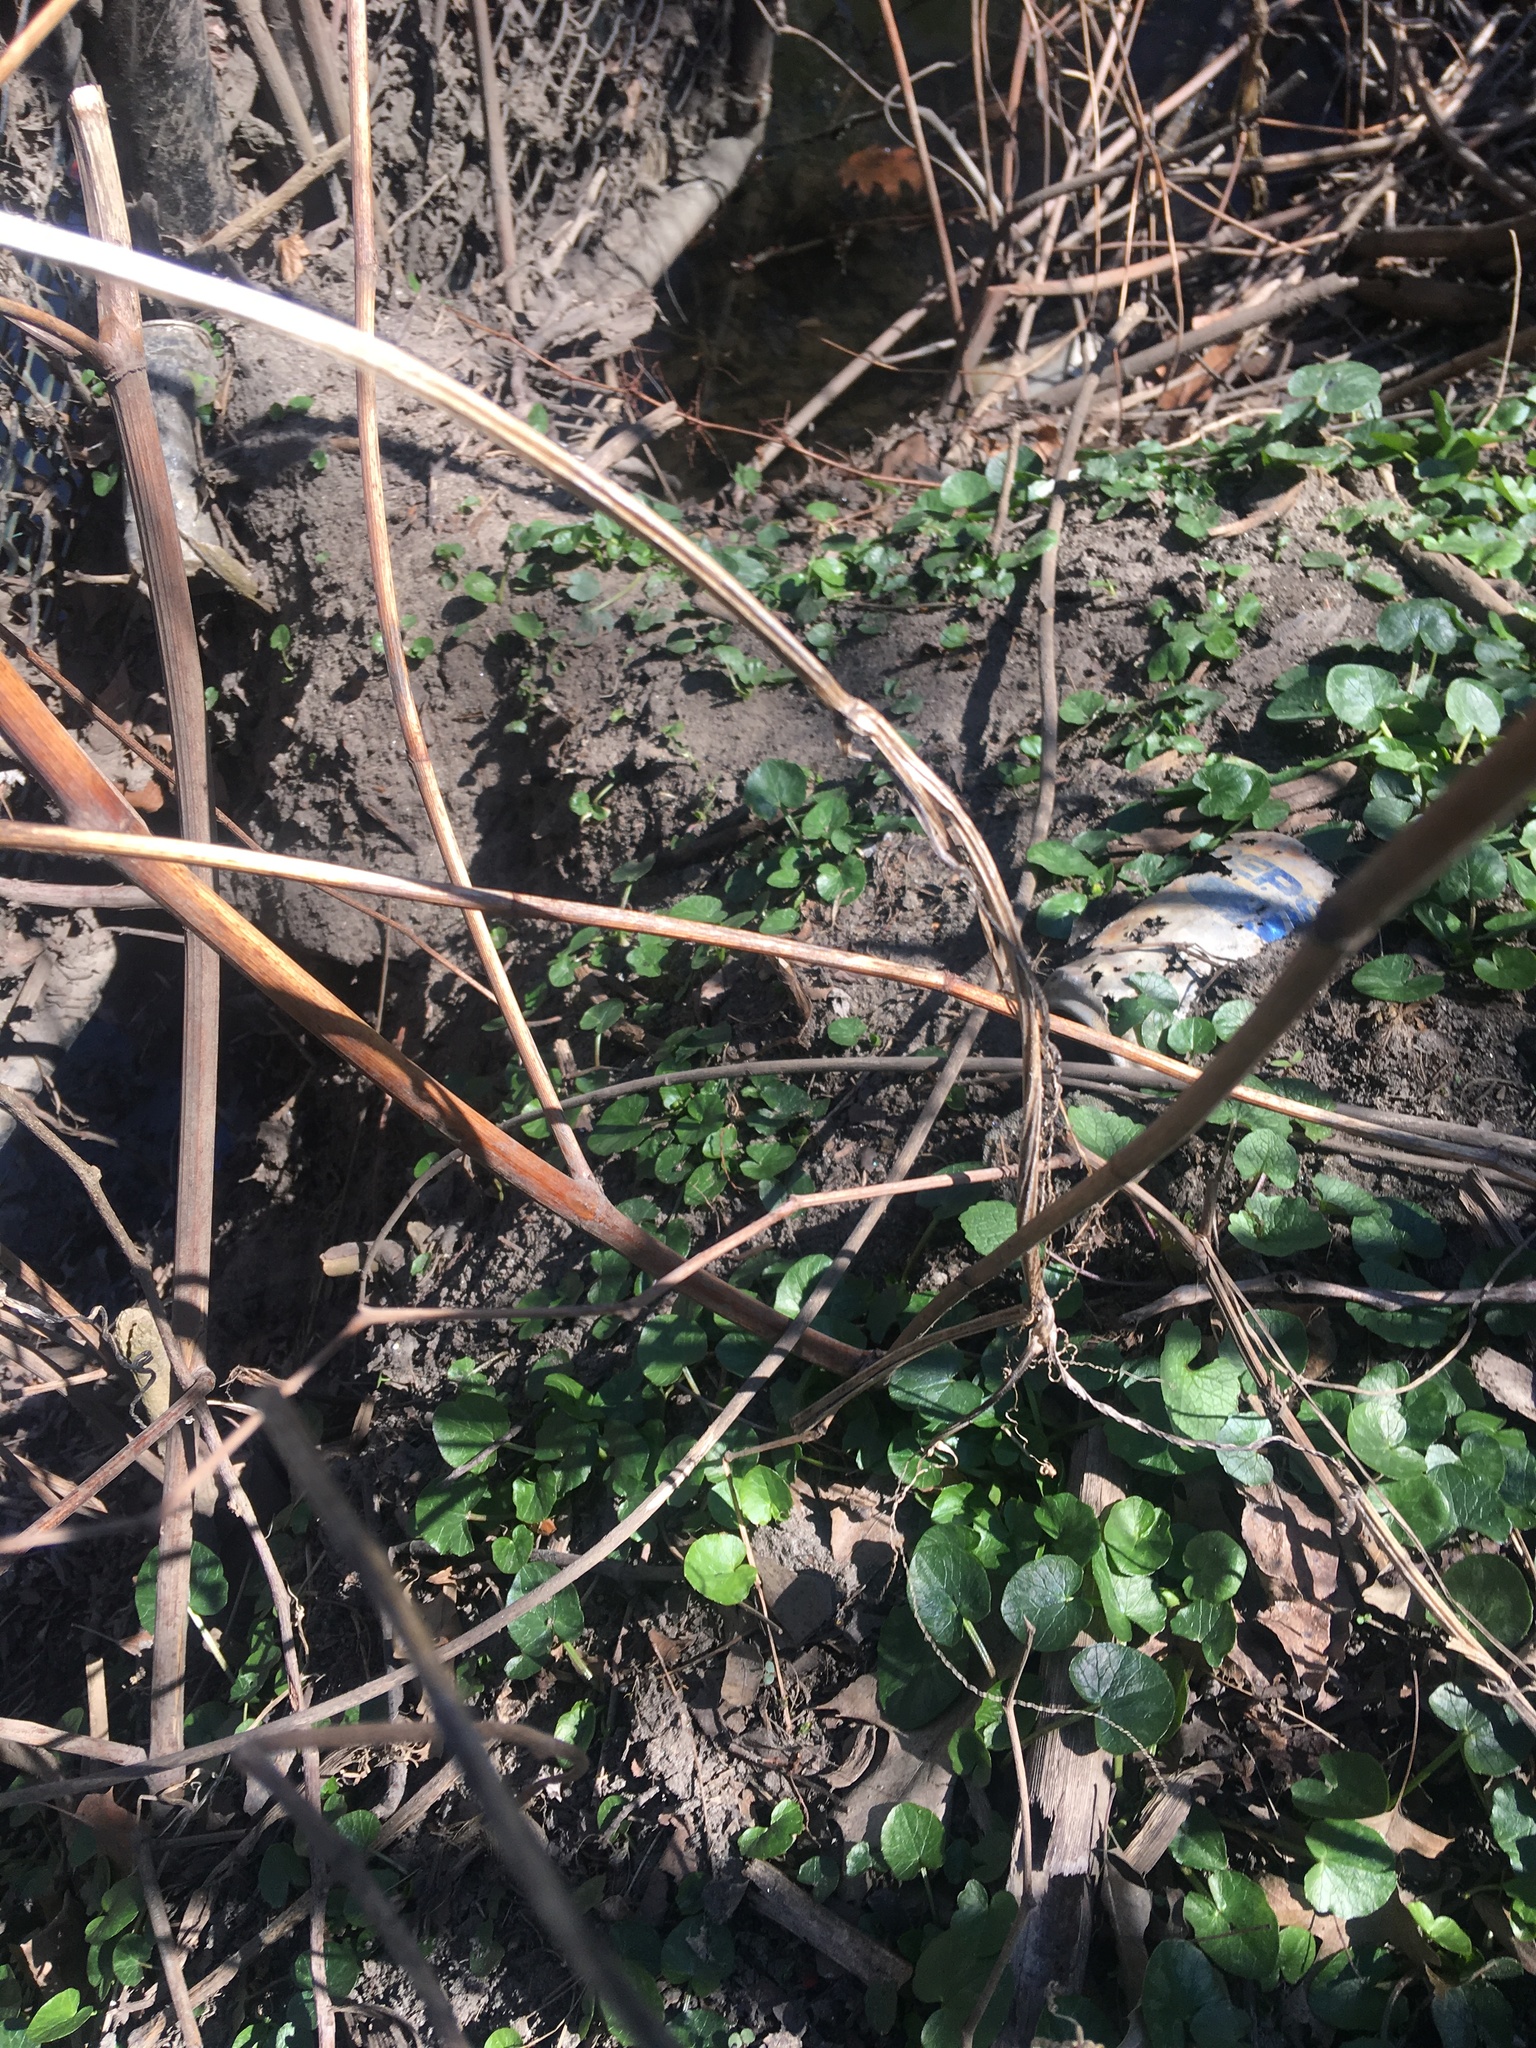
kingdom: Plantae
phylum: Tracheophyta
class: Magnoliopsida
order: Ranunculales
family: Ranunculaceae
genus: Ficaria
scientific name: Ficaria verna
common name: Lesser celandine
